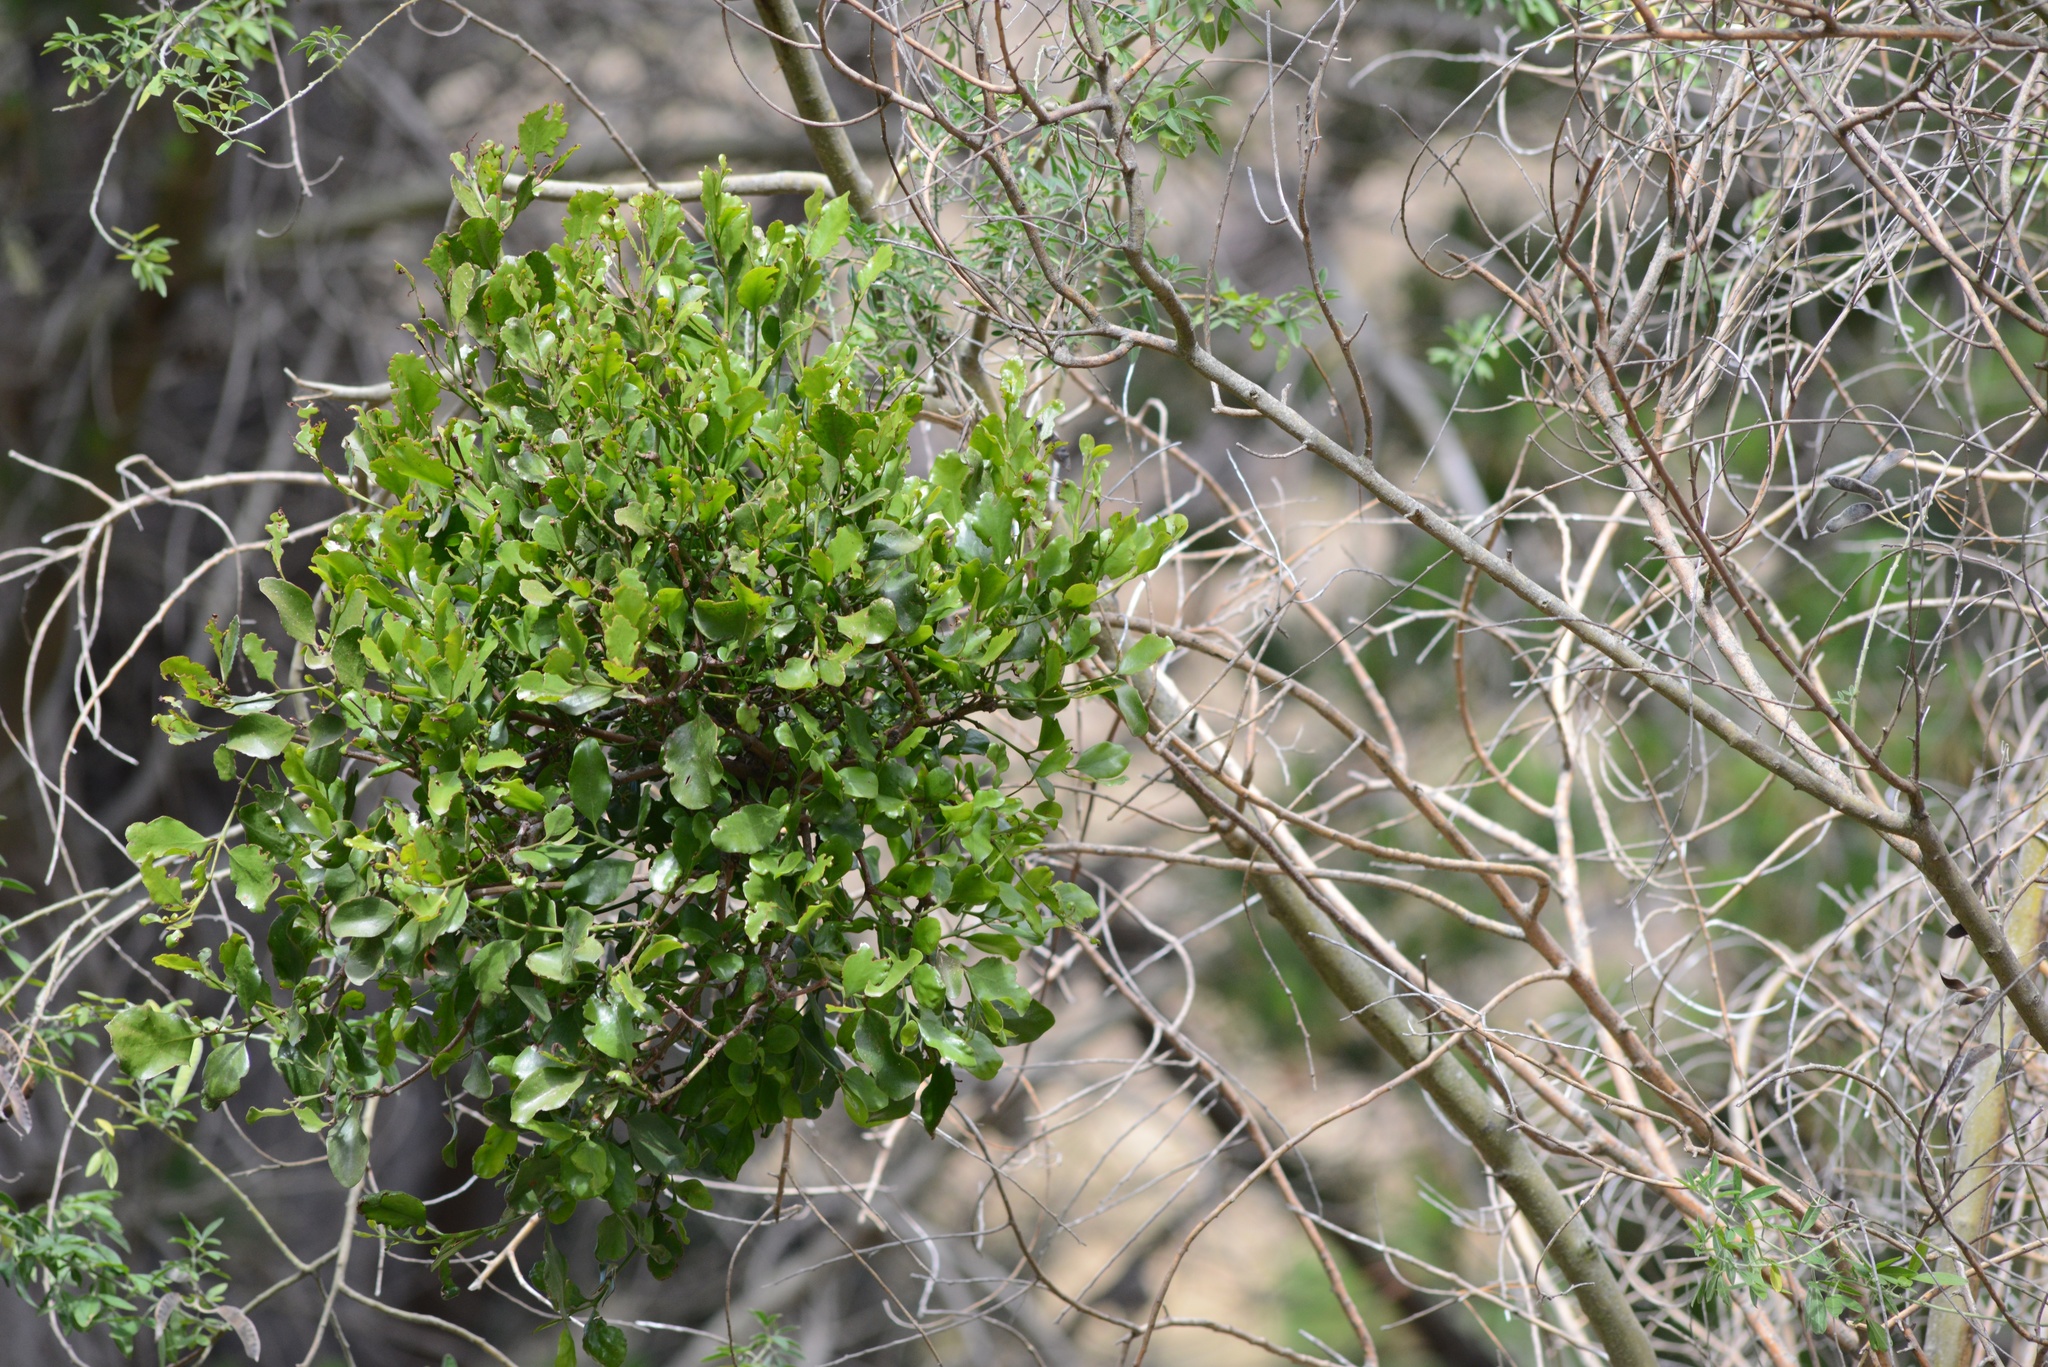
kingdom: Plantae
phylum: Tracheophyta
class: Magnoliopsida
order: Santalales
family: Loranthaceae
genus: Ileostylus
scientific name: Ileostylus micranthus
